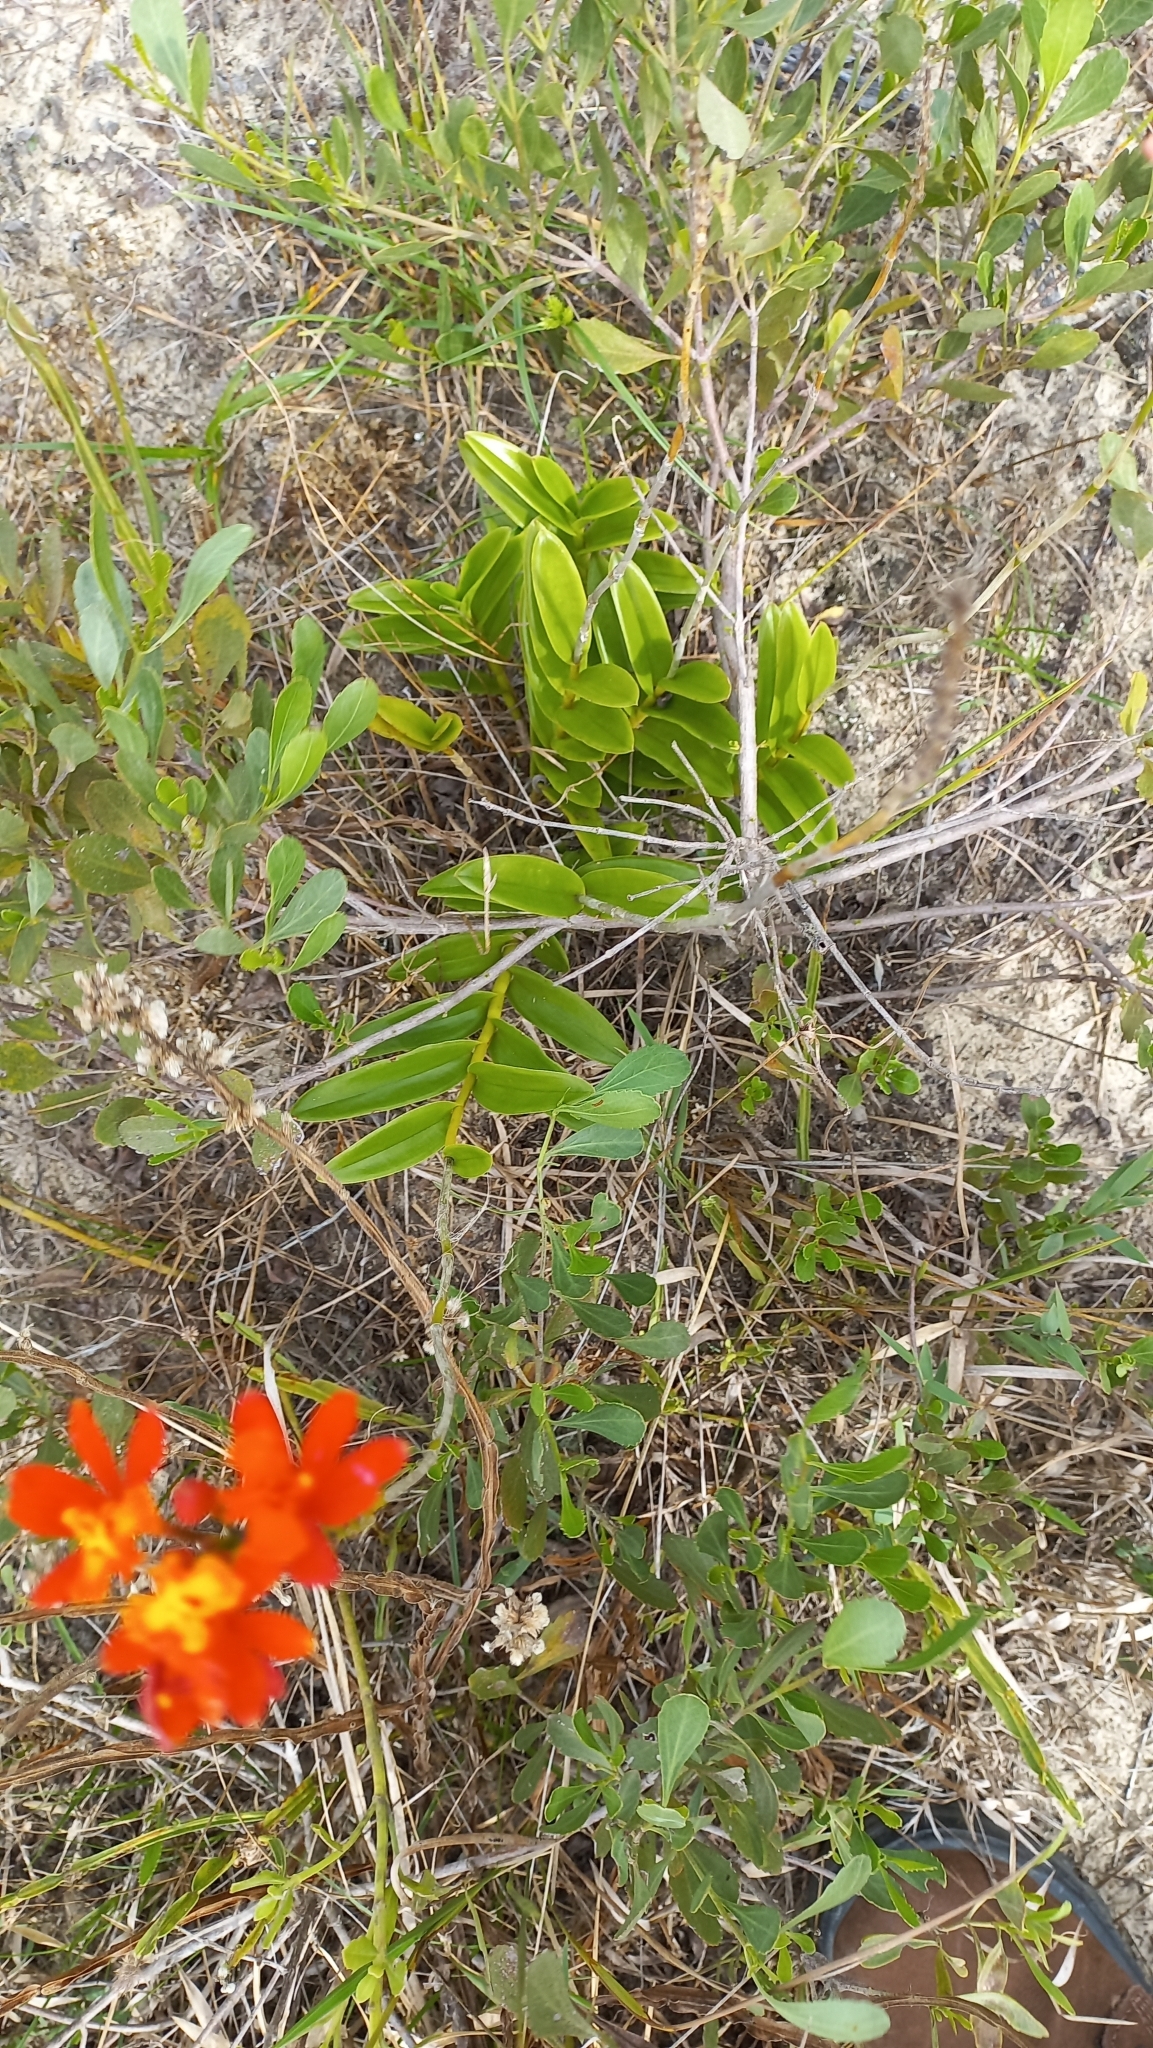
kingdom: Plantae
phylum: Tracheophyta
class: Liliopsida
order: Asparagales
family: Orchidaceae
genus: Epidendrum
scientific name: Epidendrum fulgens
